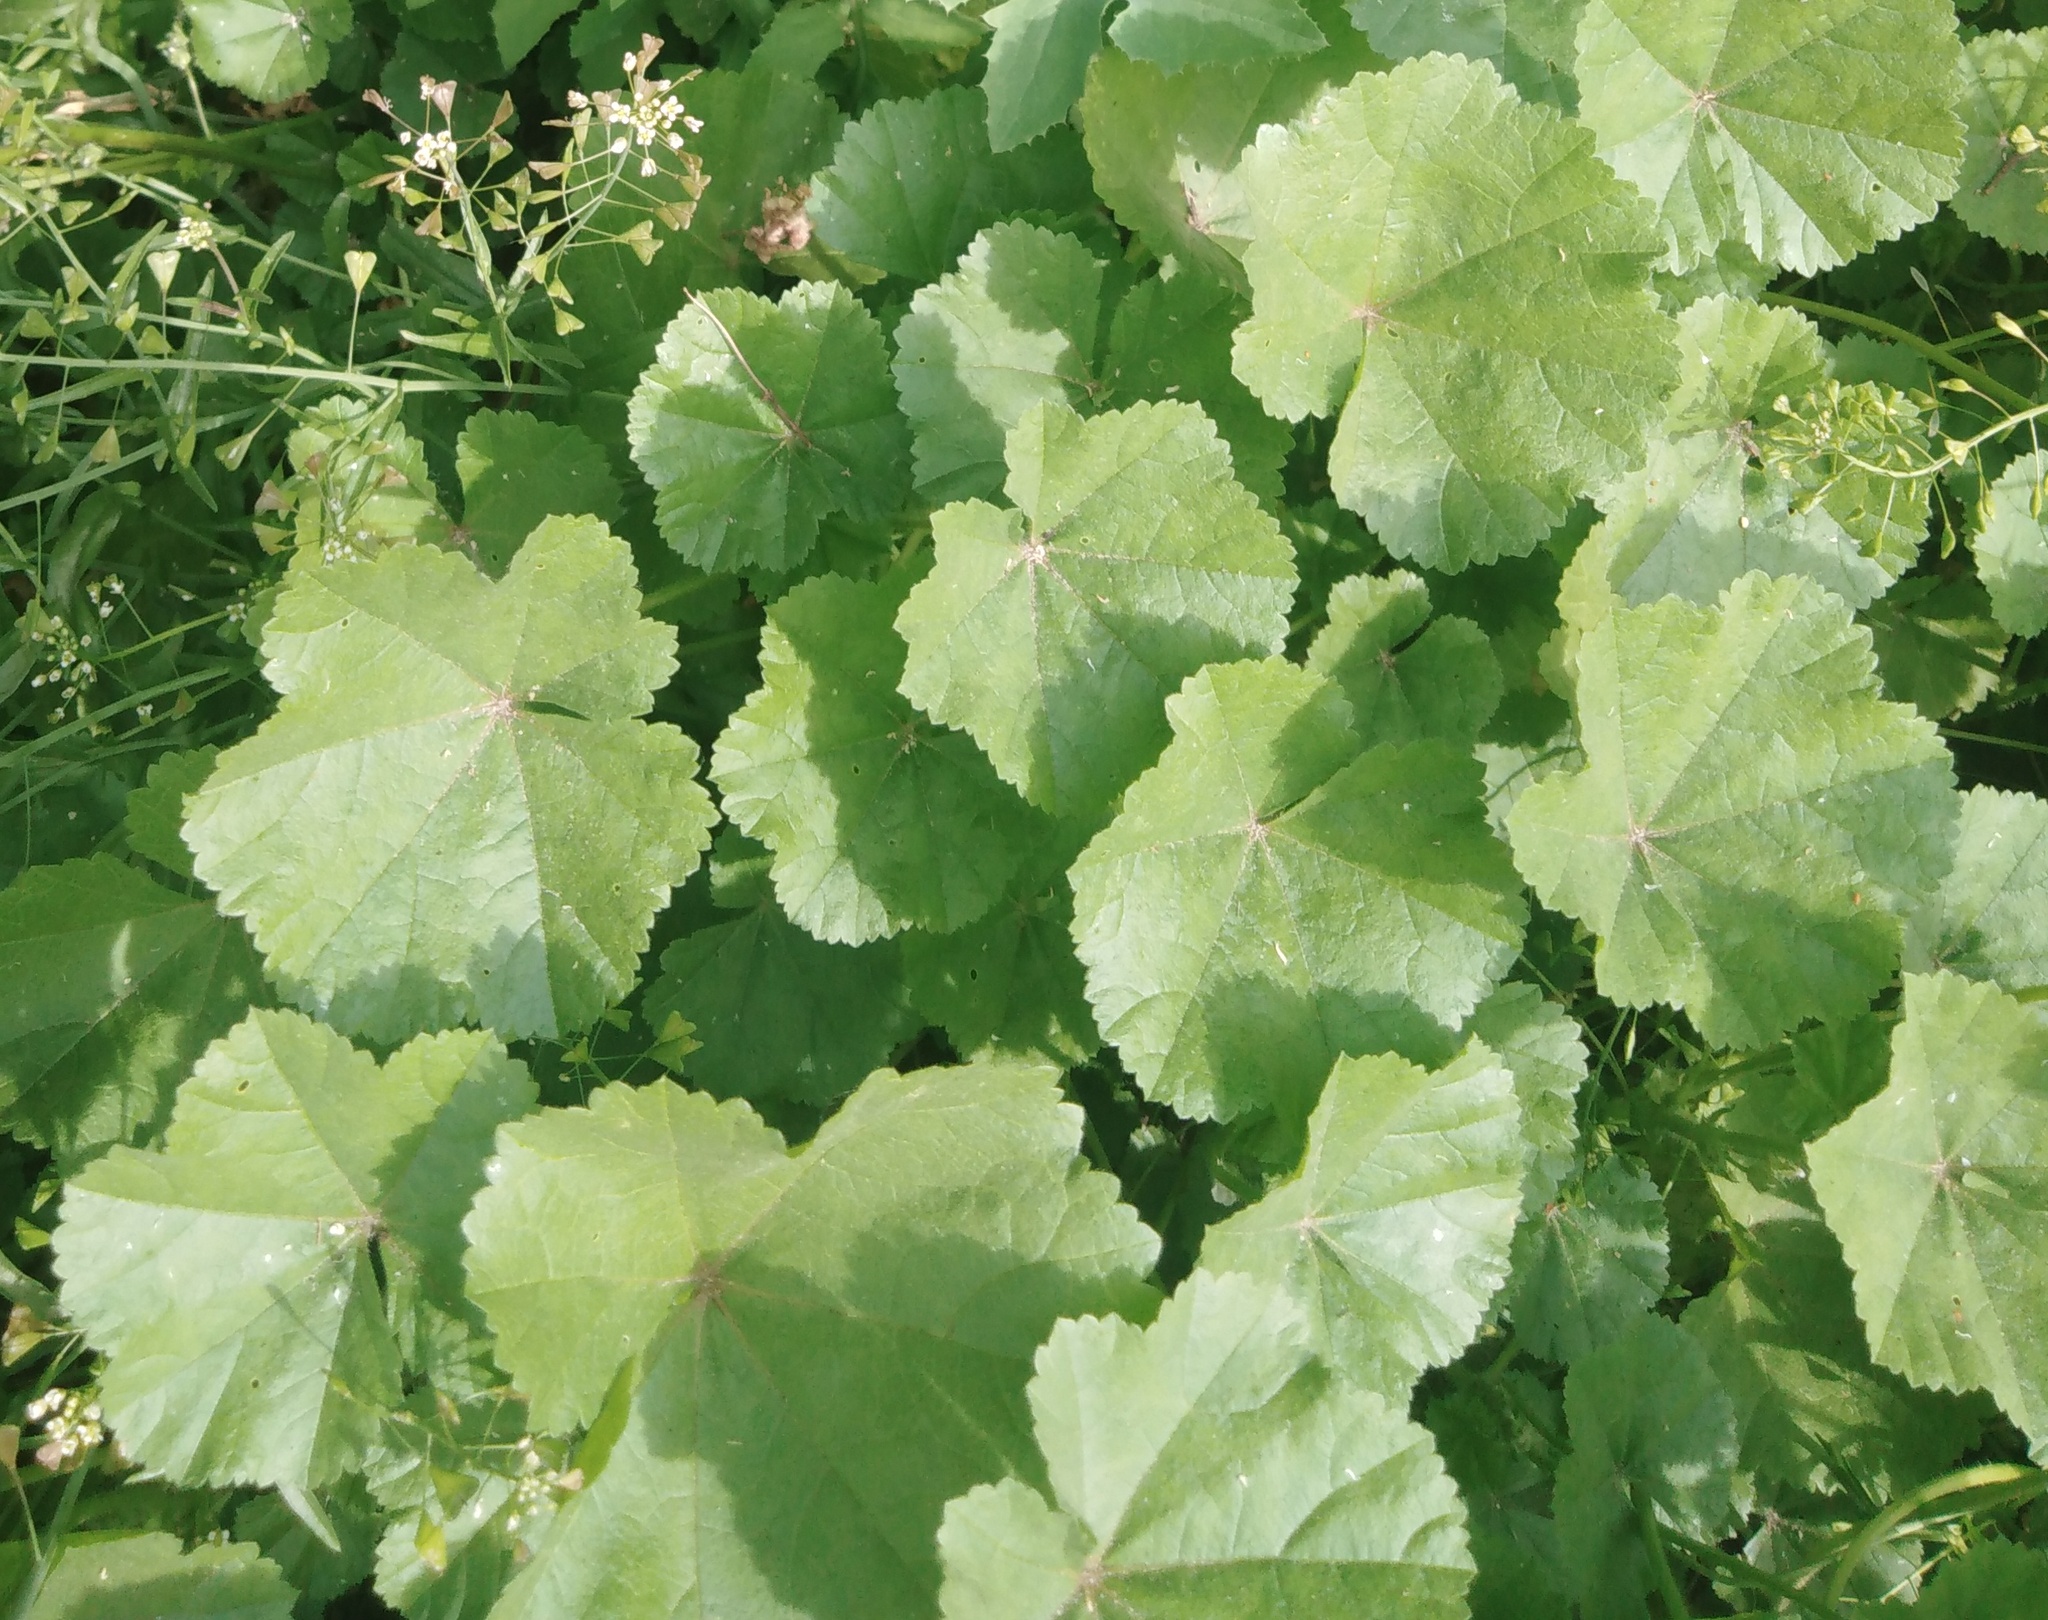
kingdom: Plantae
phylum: Tracheophyta
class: Magnoliopsida
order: Malvales
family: Malvaceae
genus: Alcea
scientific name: Alcea rosea
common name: Hollyhock
